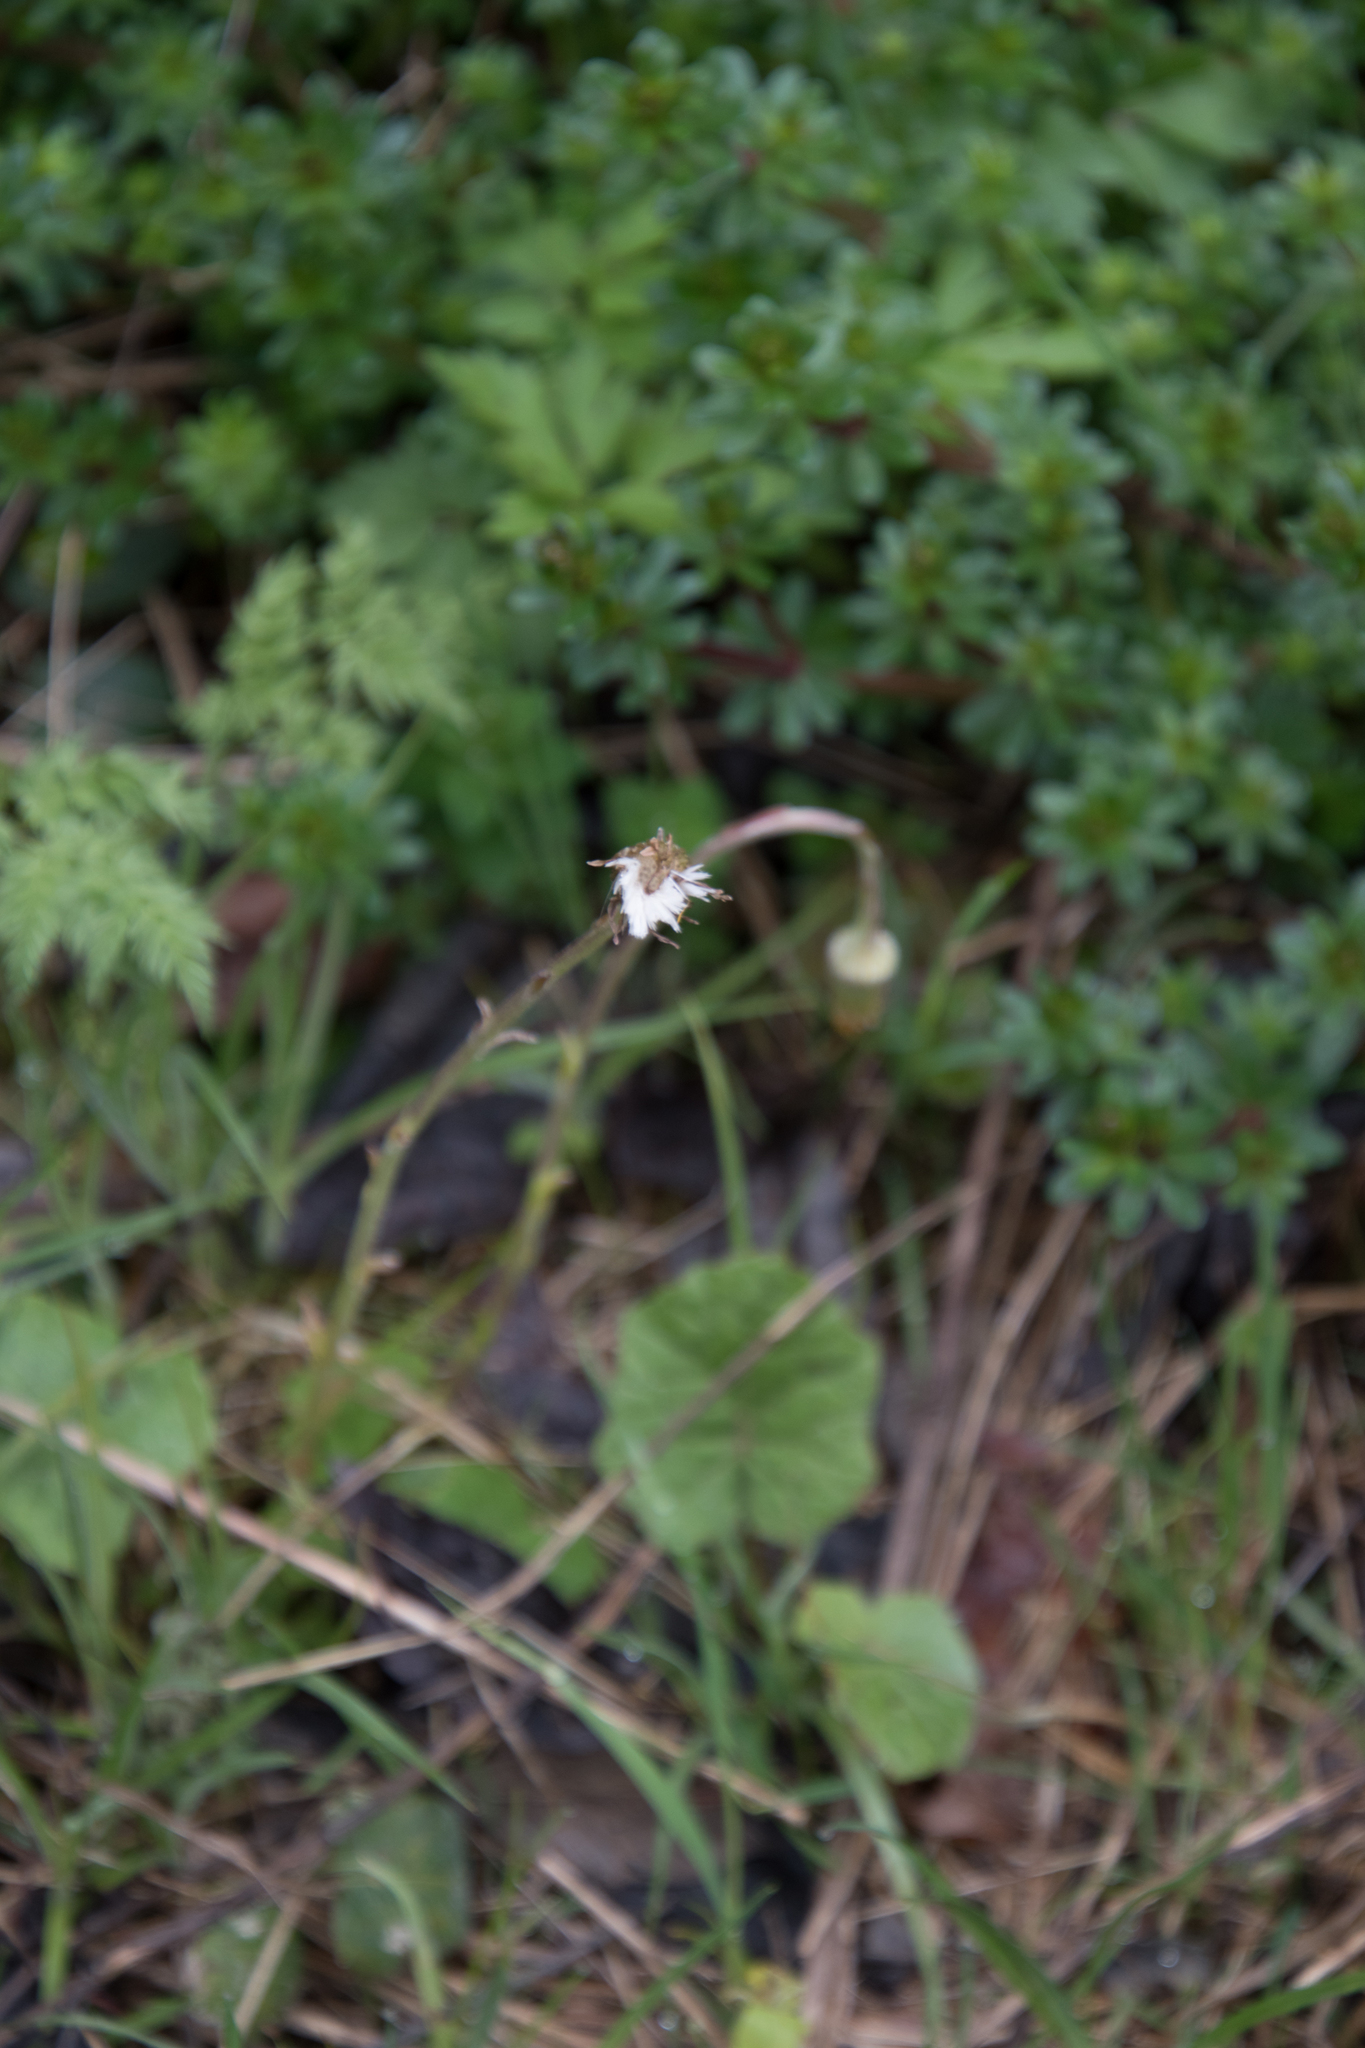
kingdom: Plantae
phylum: Tracheophyta
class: Magnoliopsida
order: Asterales
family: Asteraceae
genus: Tussilago
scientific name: Tussilago farfara
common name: Coltsfoot
